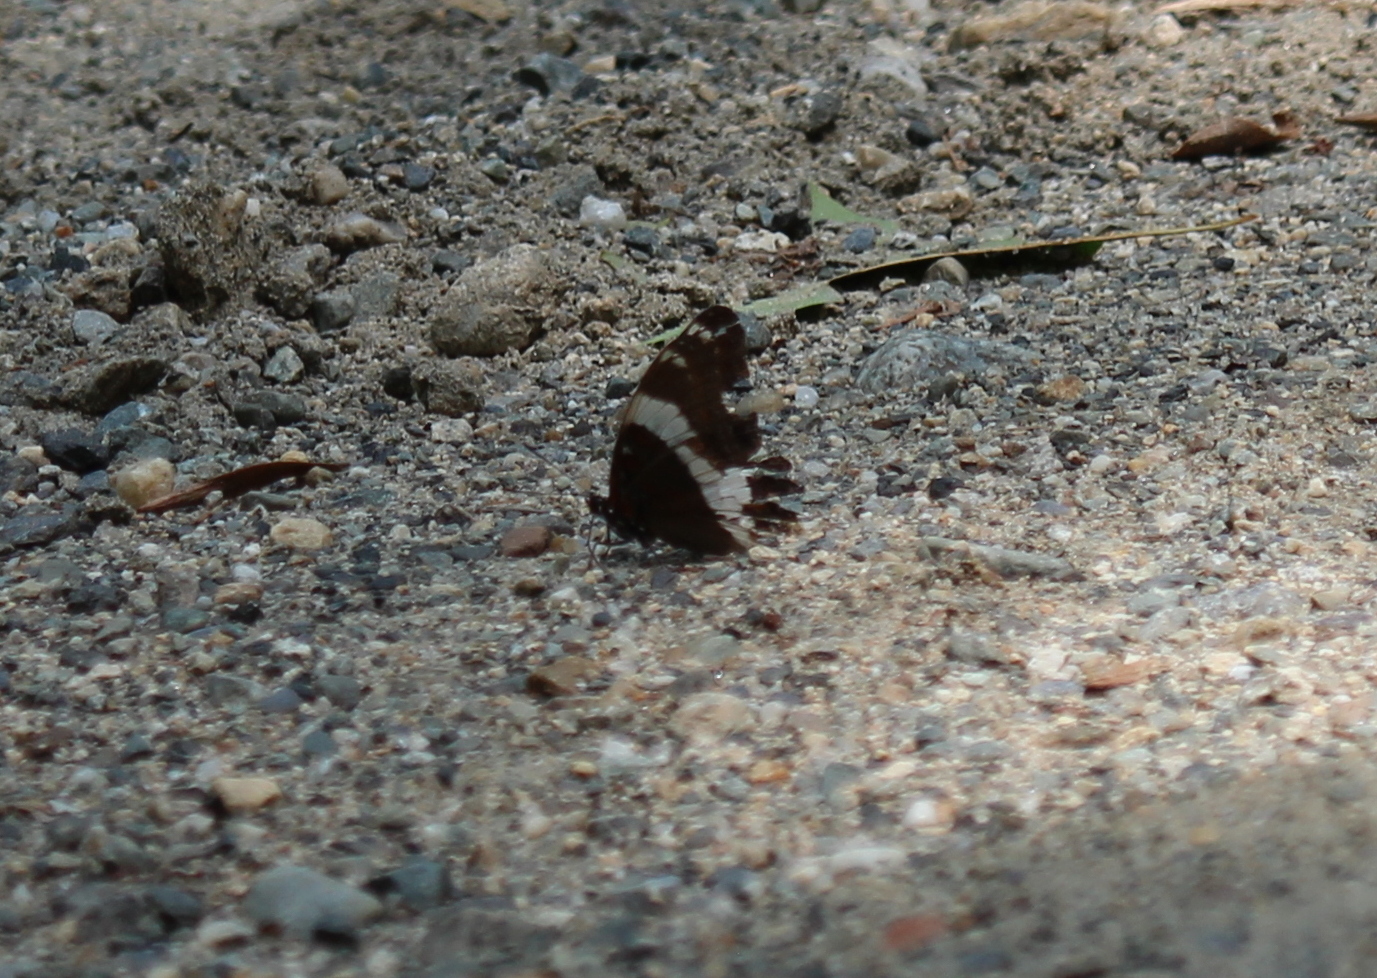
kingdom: Animalia
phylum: Arthropoda
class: Insecta
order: Lepidoptera
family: Nymphalidae
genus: Limenitis
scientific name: Limenitis arthemis
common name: Red-spotted admiral
